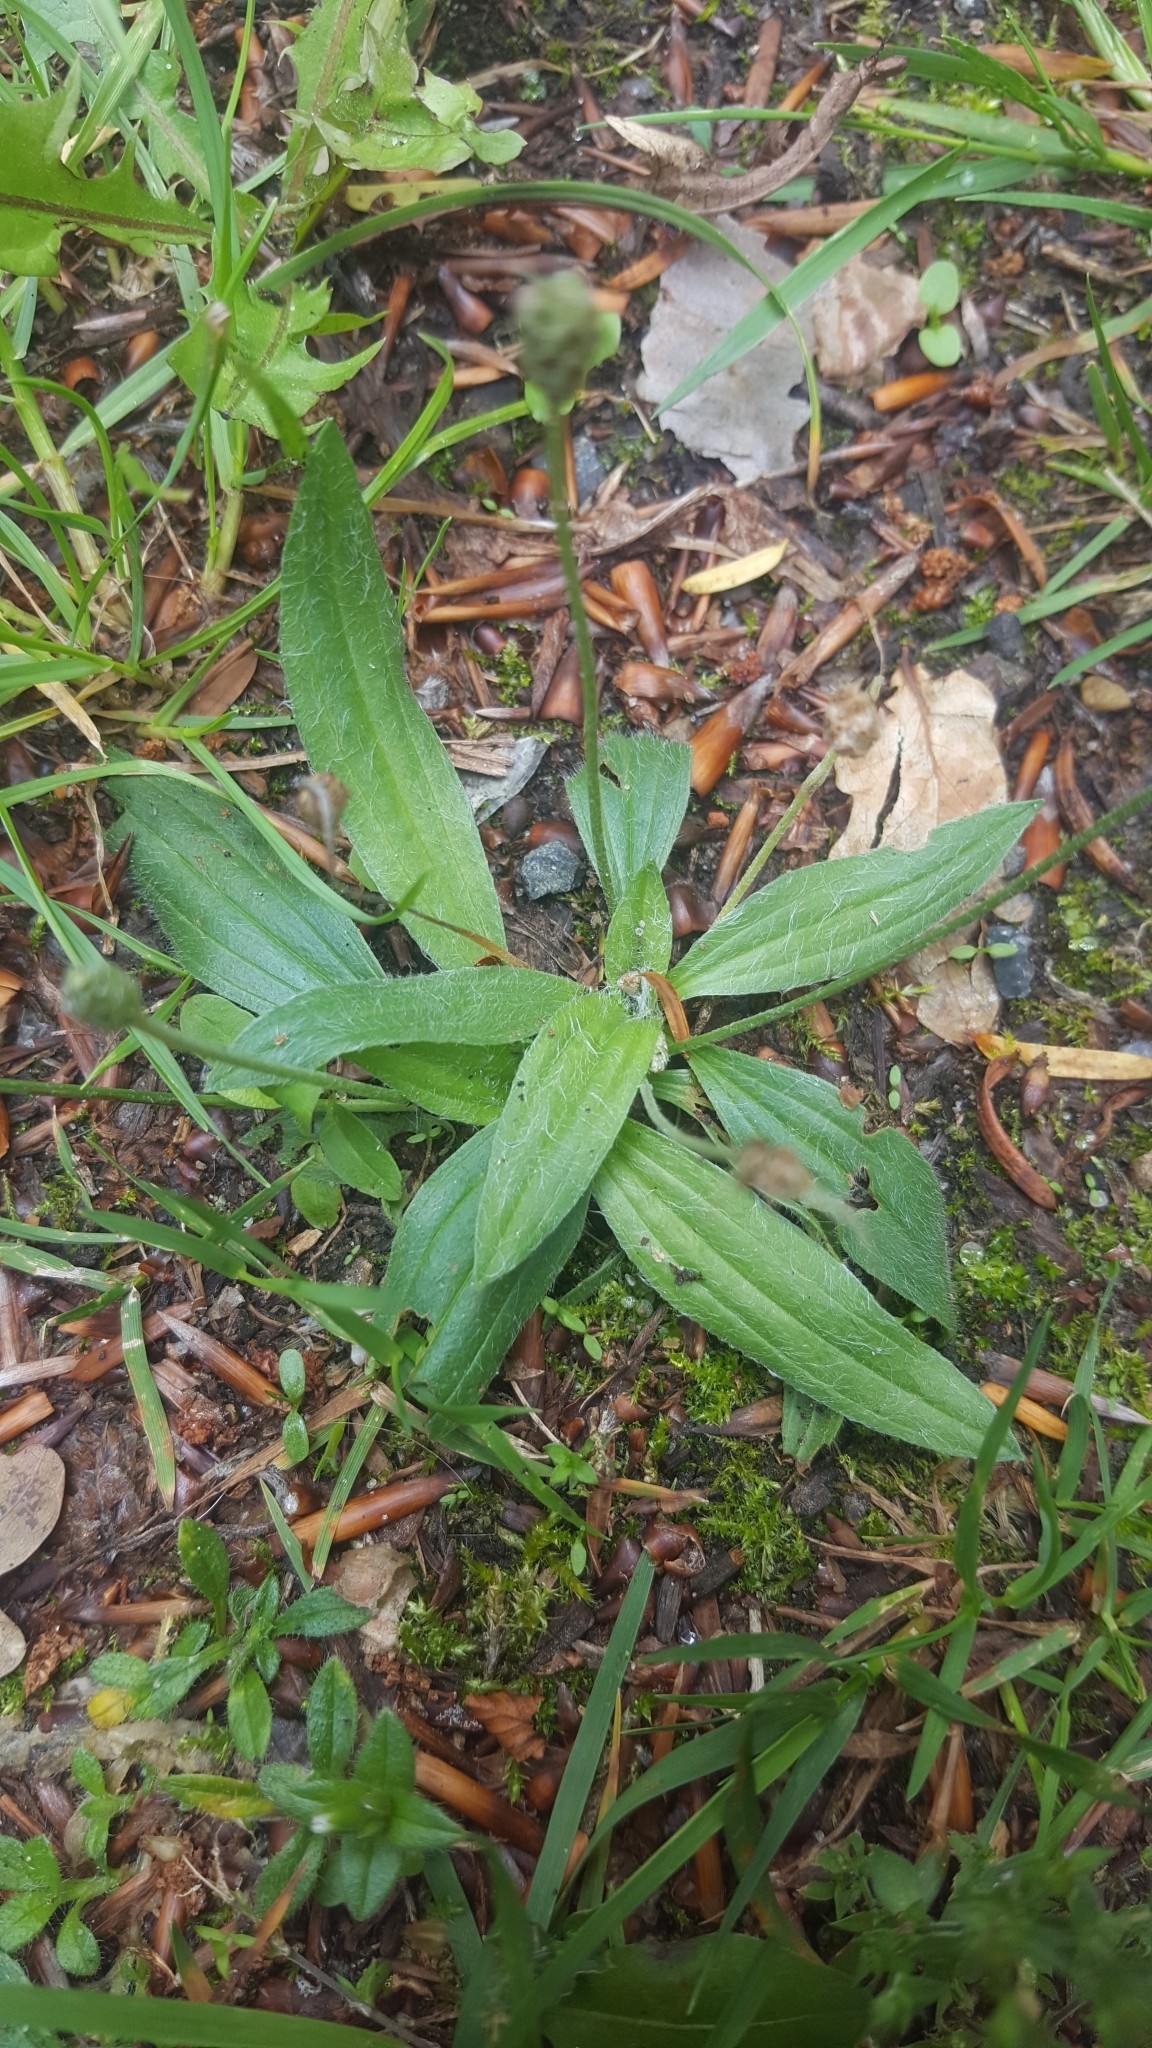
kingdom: Plantae
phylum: Tracheophyta
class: Magnoliopsida
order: Lamiales
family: Plantaginaceae
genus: Plantago
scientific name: Plantago lanceolata
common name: Ribwort plantain
